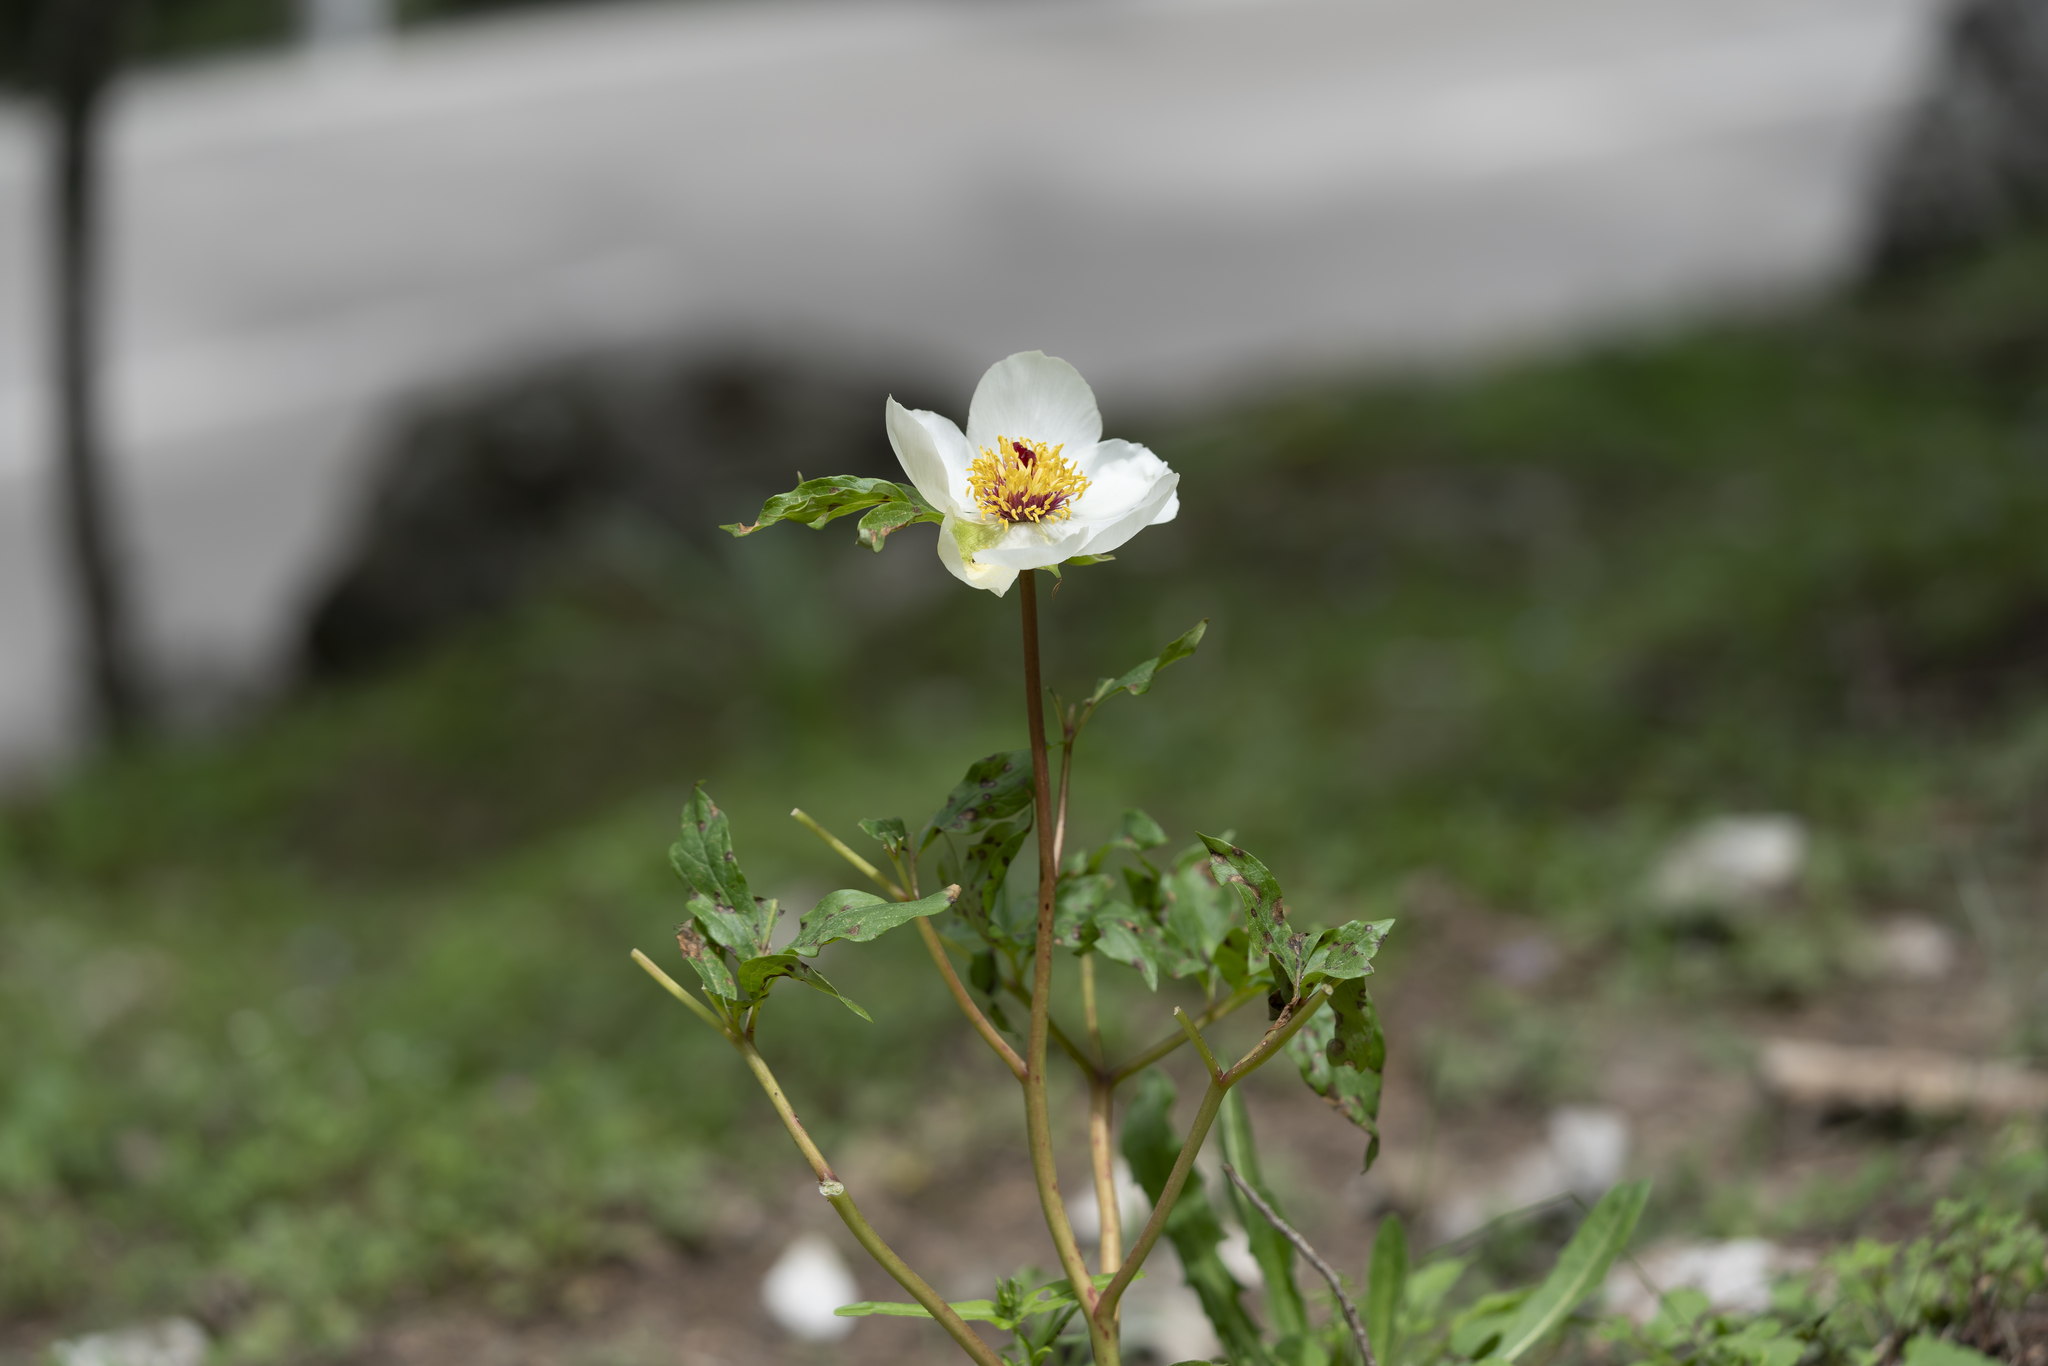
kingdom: Plantae
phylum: Tracheophyta
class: Magnoliopsida
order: Saxifragales
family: Paeoniaceae
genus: Paeonia
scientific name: Paeonia clusii
